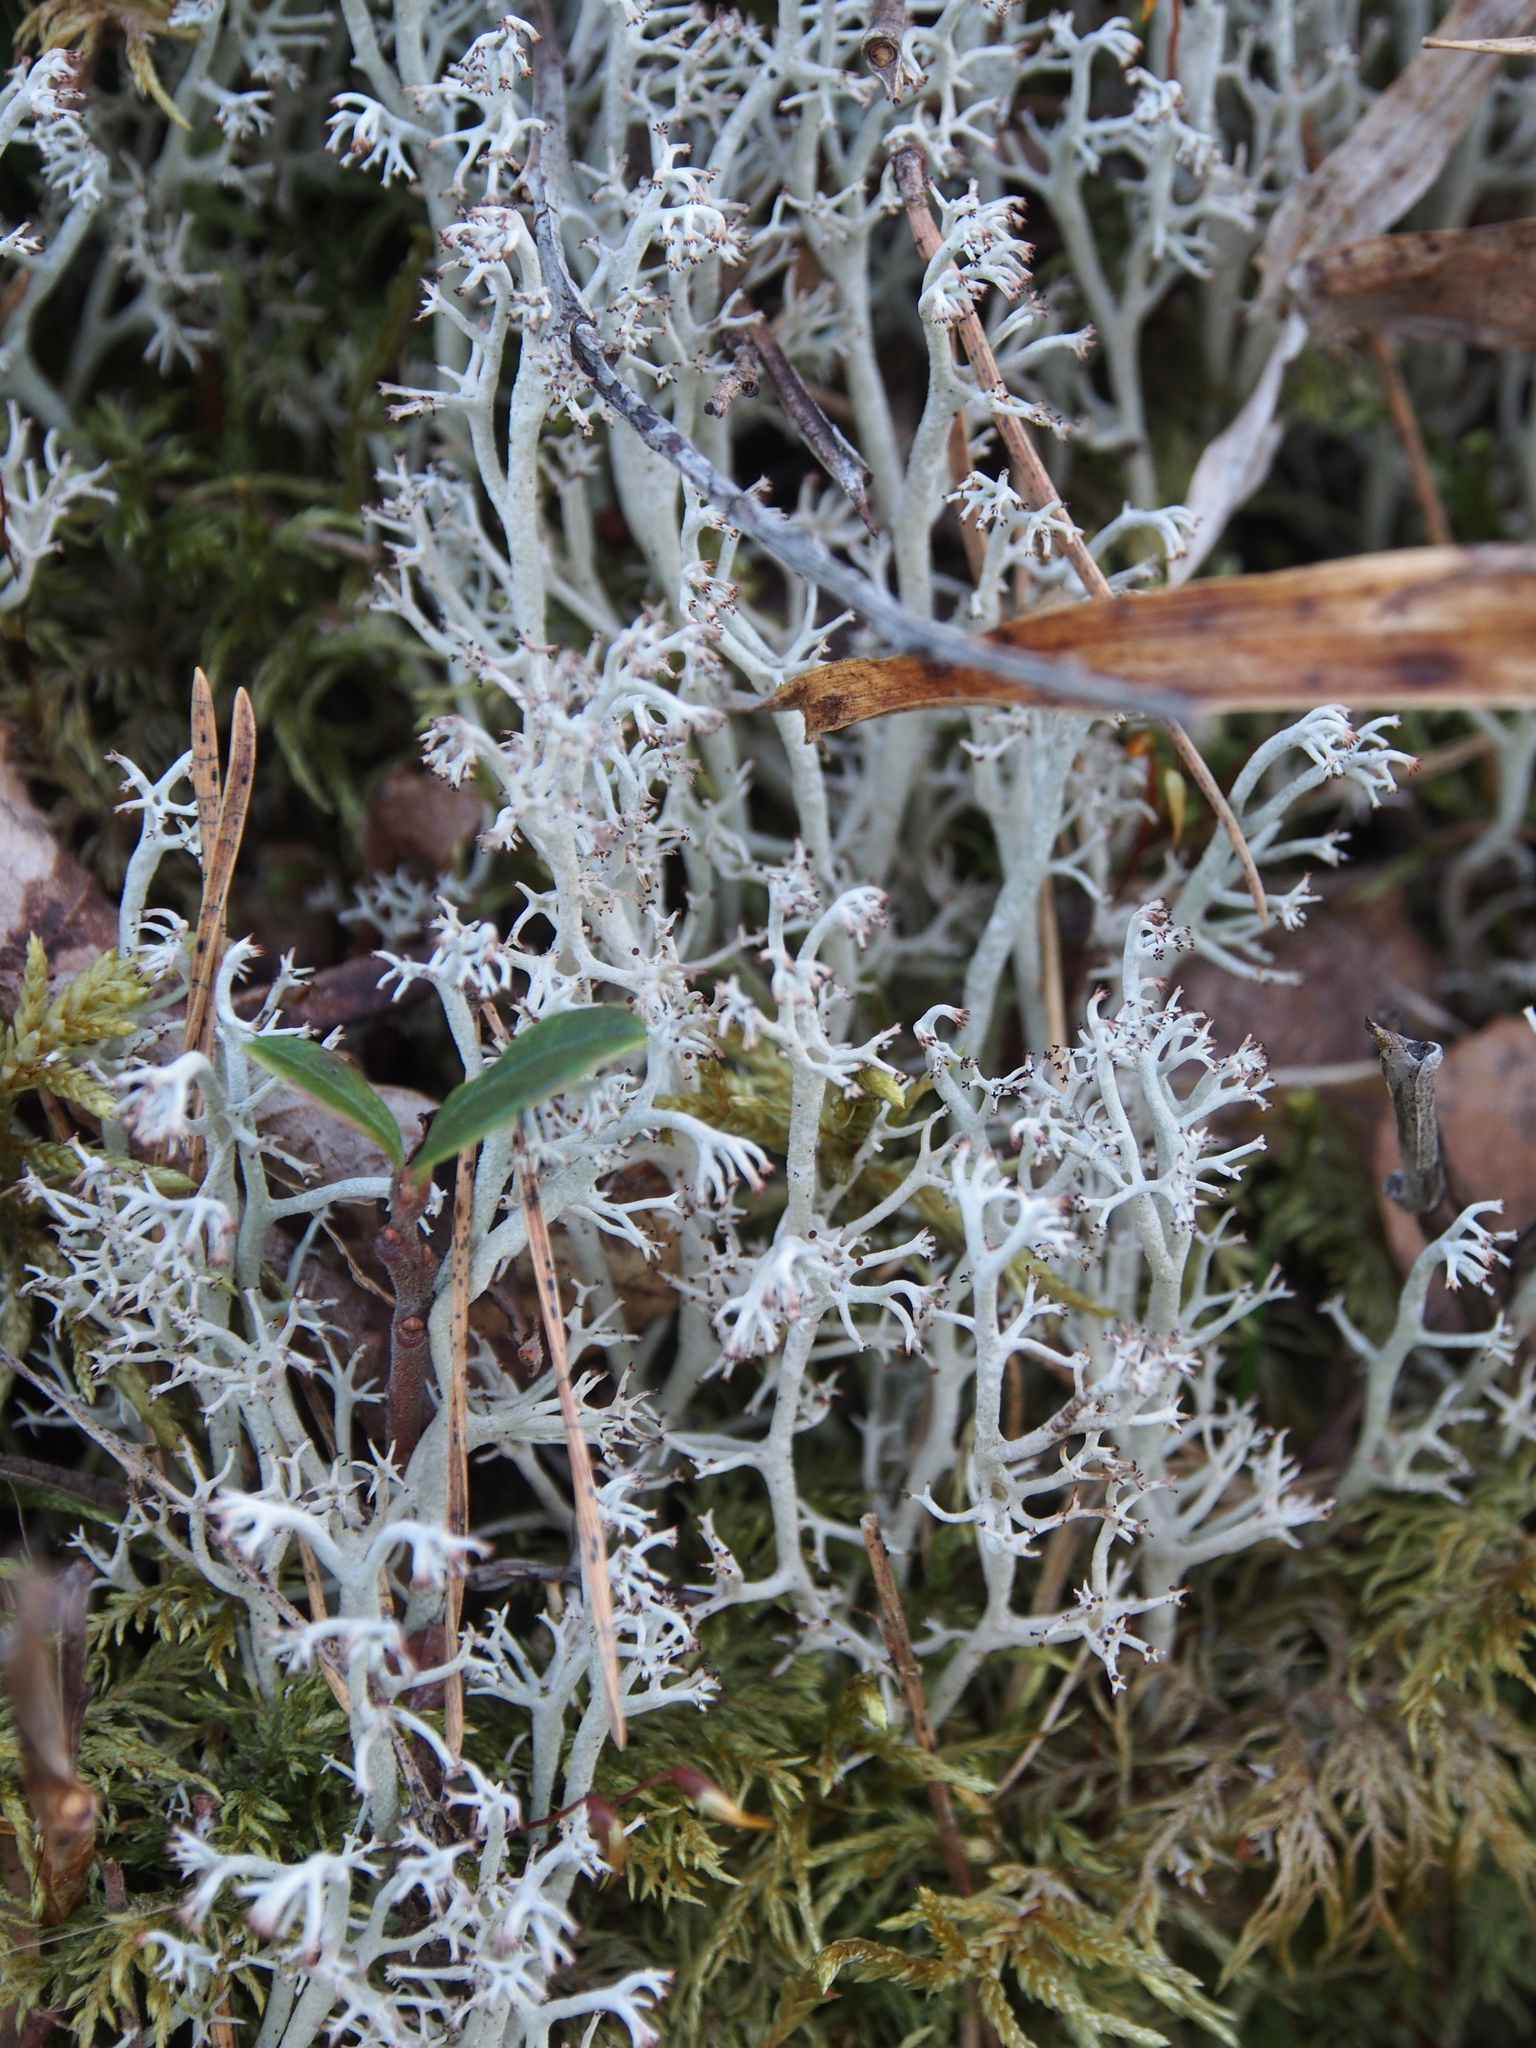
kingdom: Fungi
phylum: Ascomycota
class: Lecanoromycetes
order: Lecanorales
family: Cladoniaceae
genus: Cladonia
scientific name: Cladonia rangiferina
